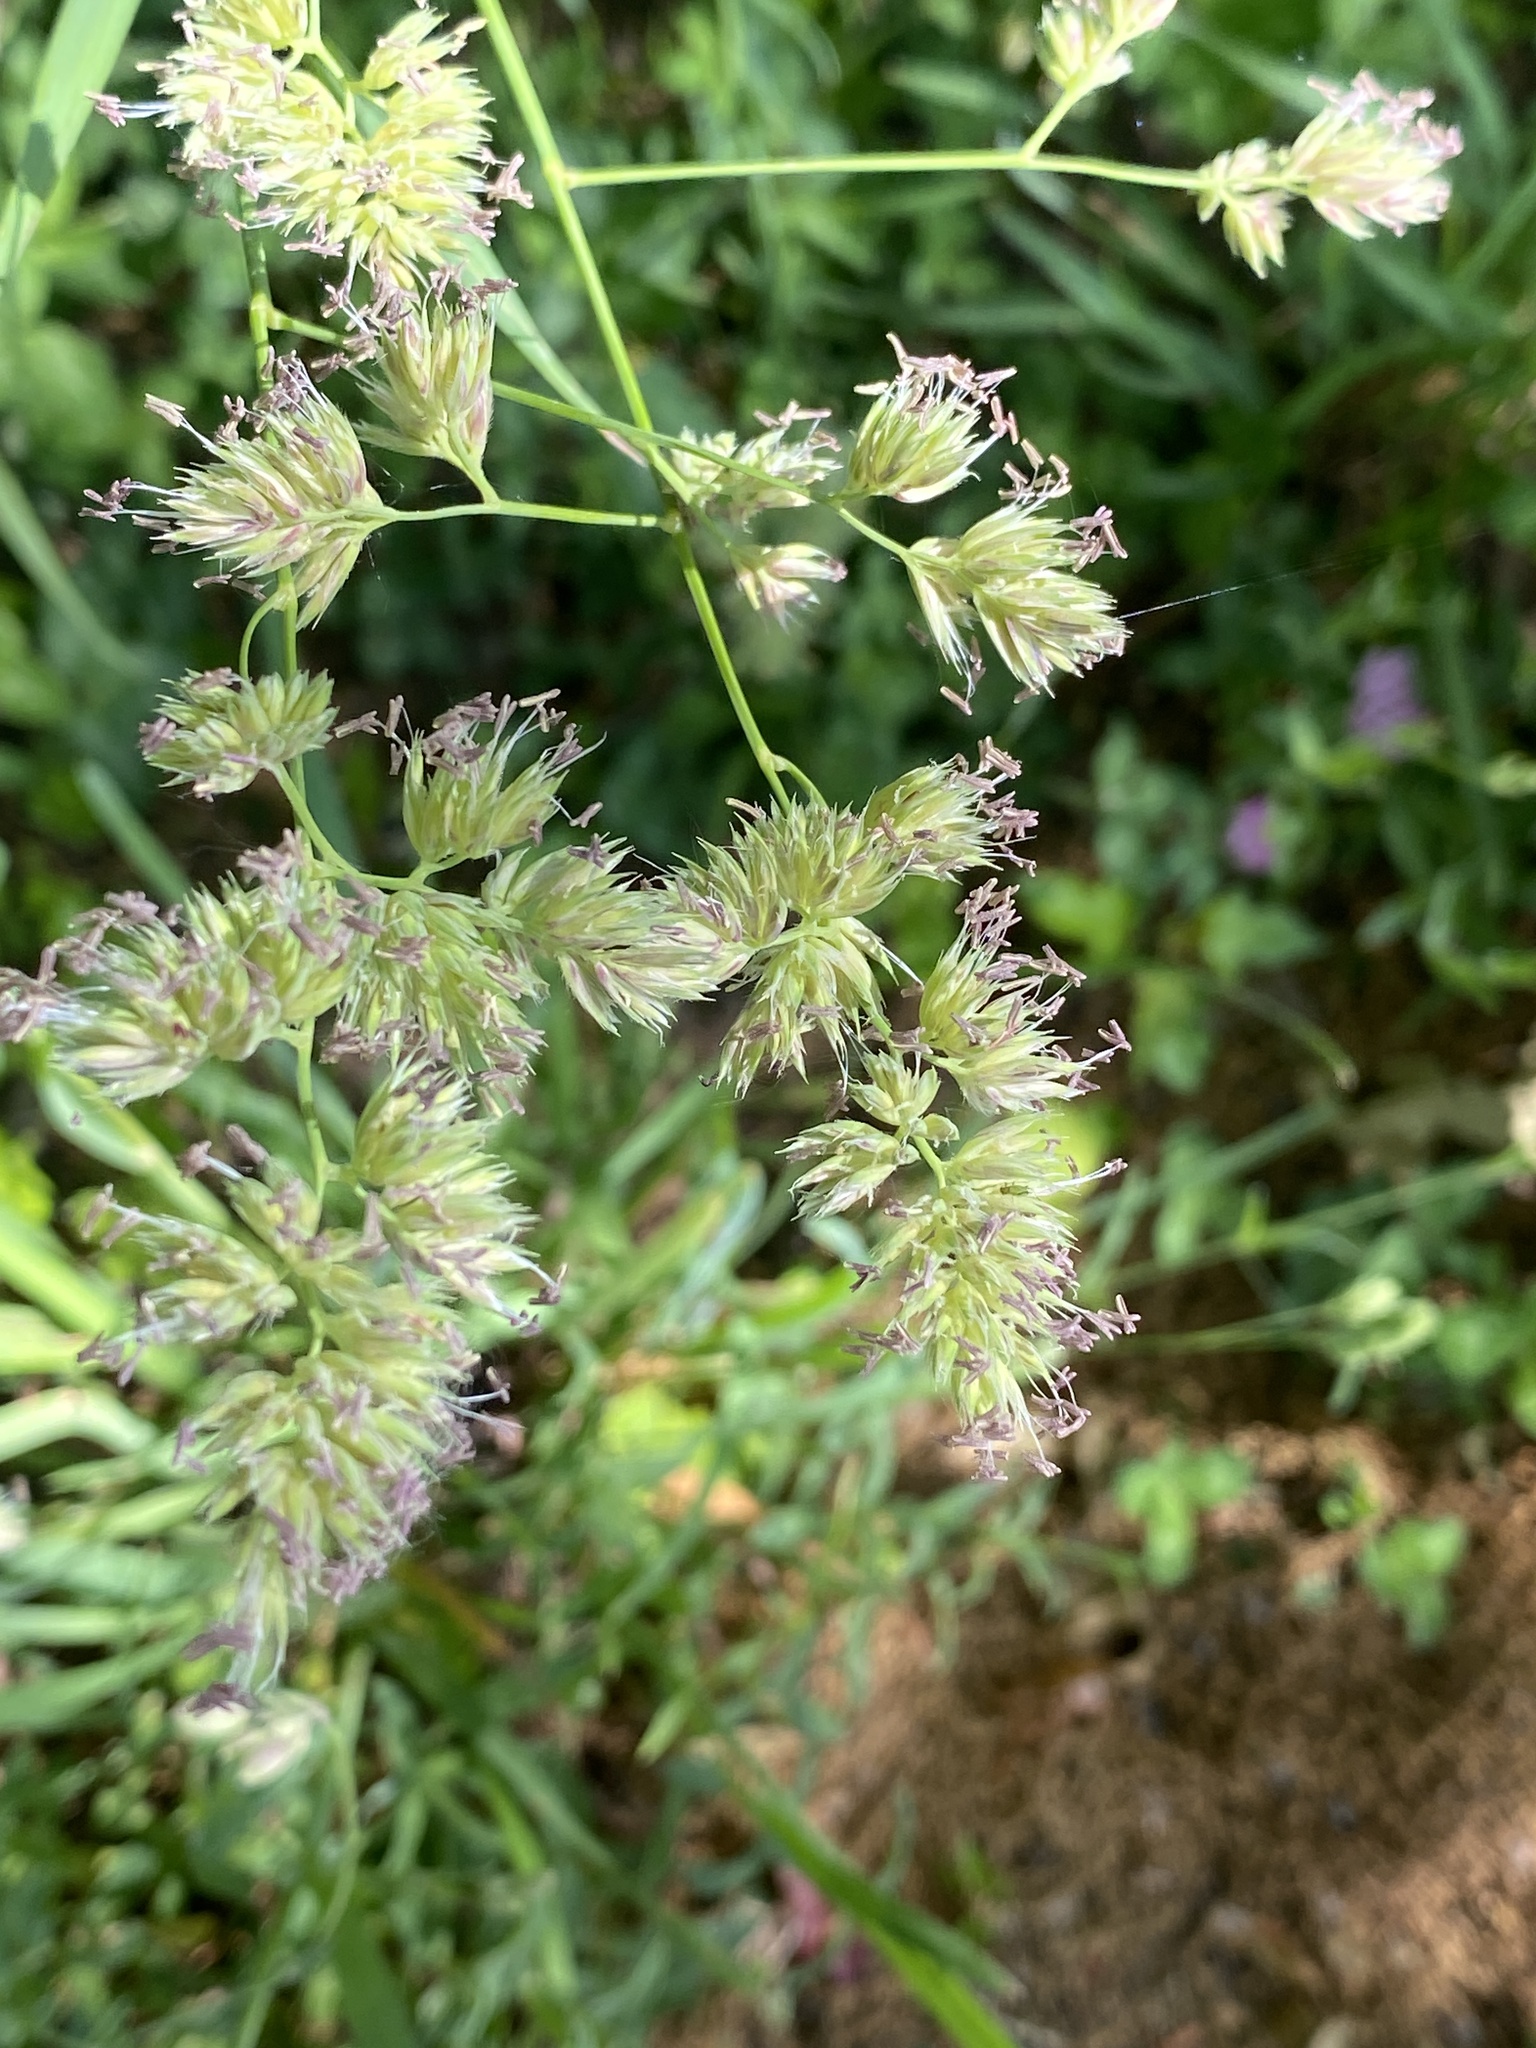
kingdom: Plantae
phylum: Tracheophyta
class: Liliopsida
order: Poales
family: Poaceae
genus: Dactylis
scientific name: Dactylis glomerata
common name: Orchardgrass
